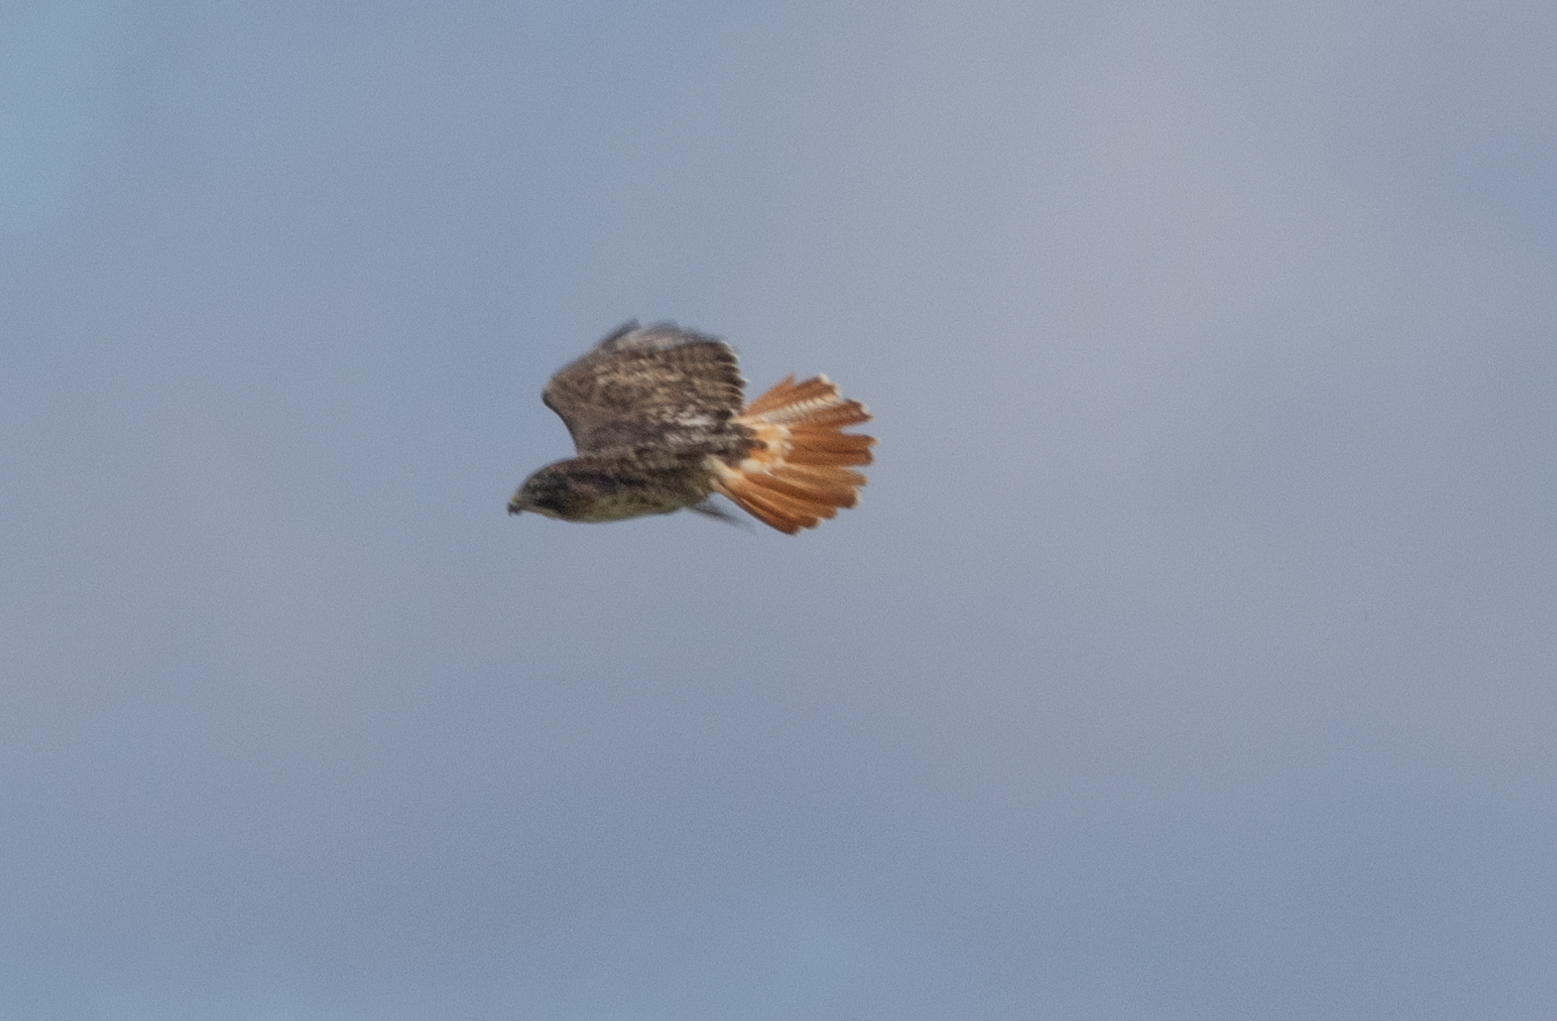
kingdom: Animalia
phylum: Chordata
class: Aves
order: Accipitriformes
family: Accipitridae
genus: Buteo
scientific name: Buteo jamaicensis
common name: Red-tailed hawk
